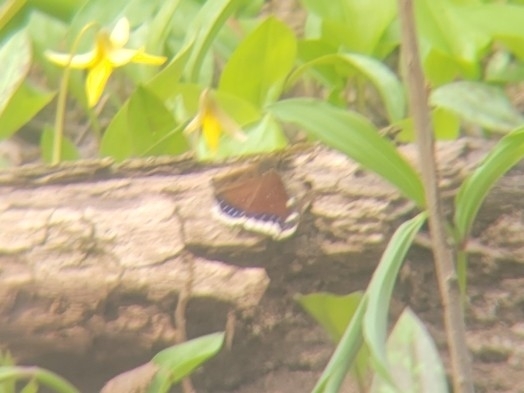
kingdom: Animalia
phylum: Arthropoda
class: Insecta
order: Lepidoptera
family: Nymphalidae
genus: Nymphalis
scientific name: Nymphalis antiopa
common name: Camberwell beauty
